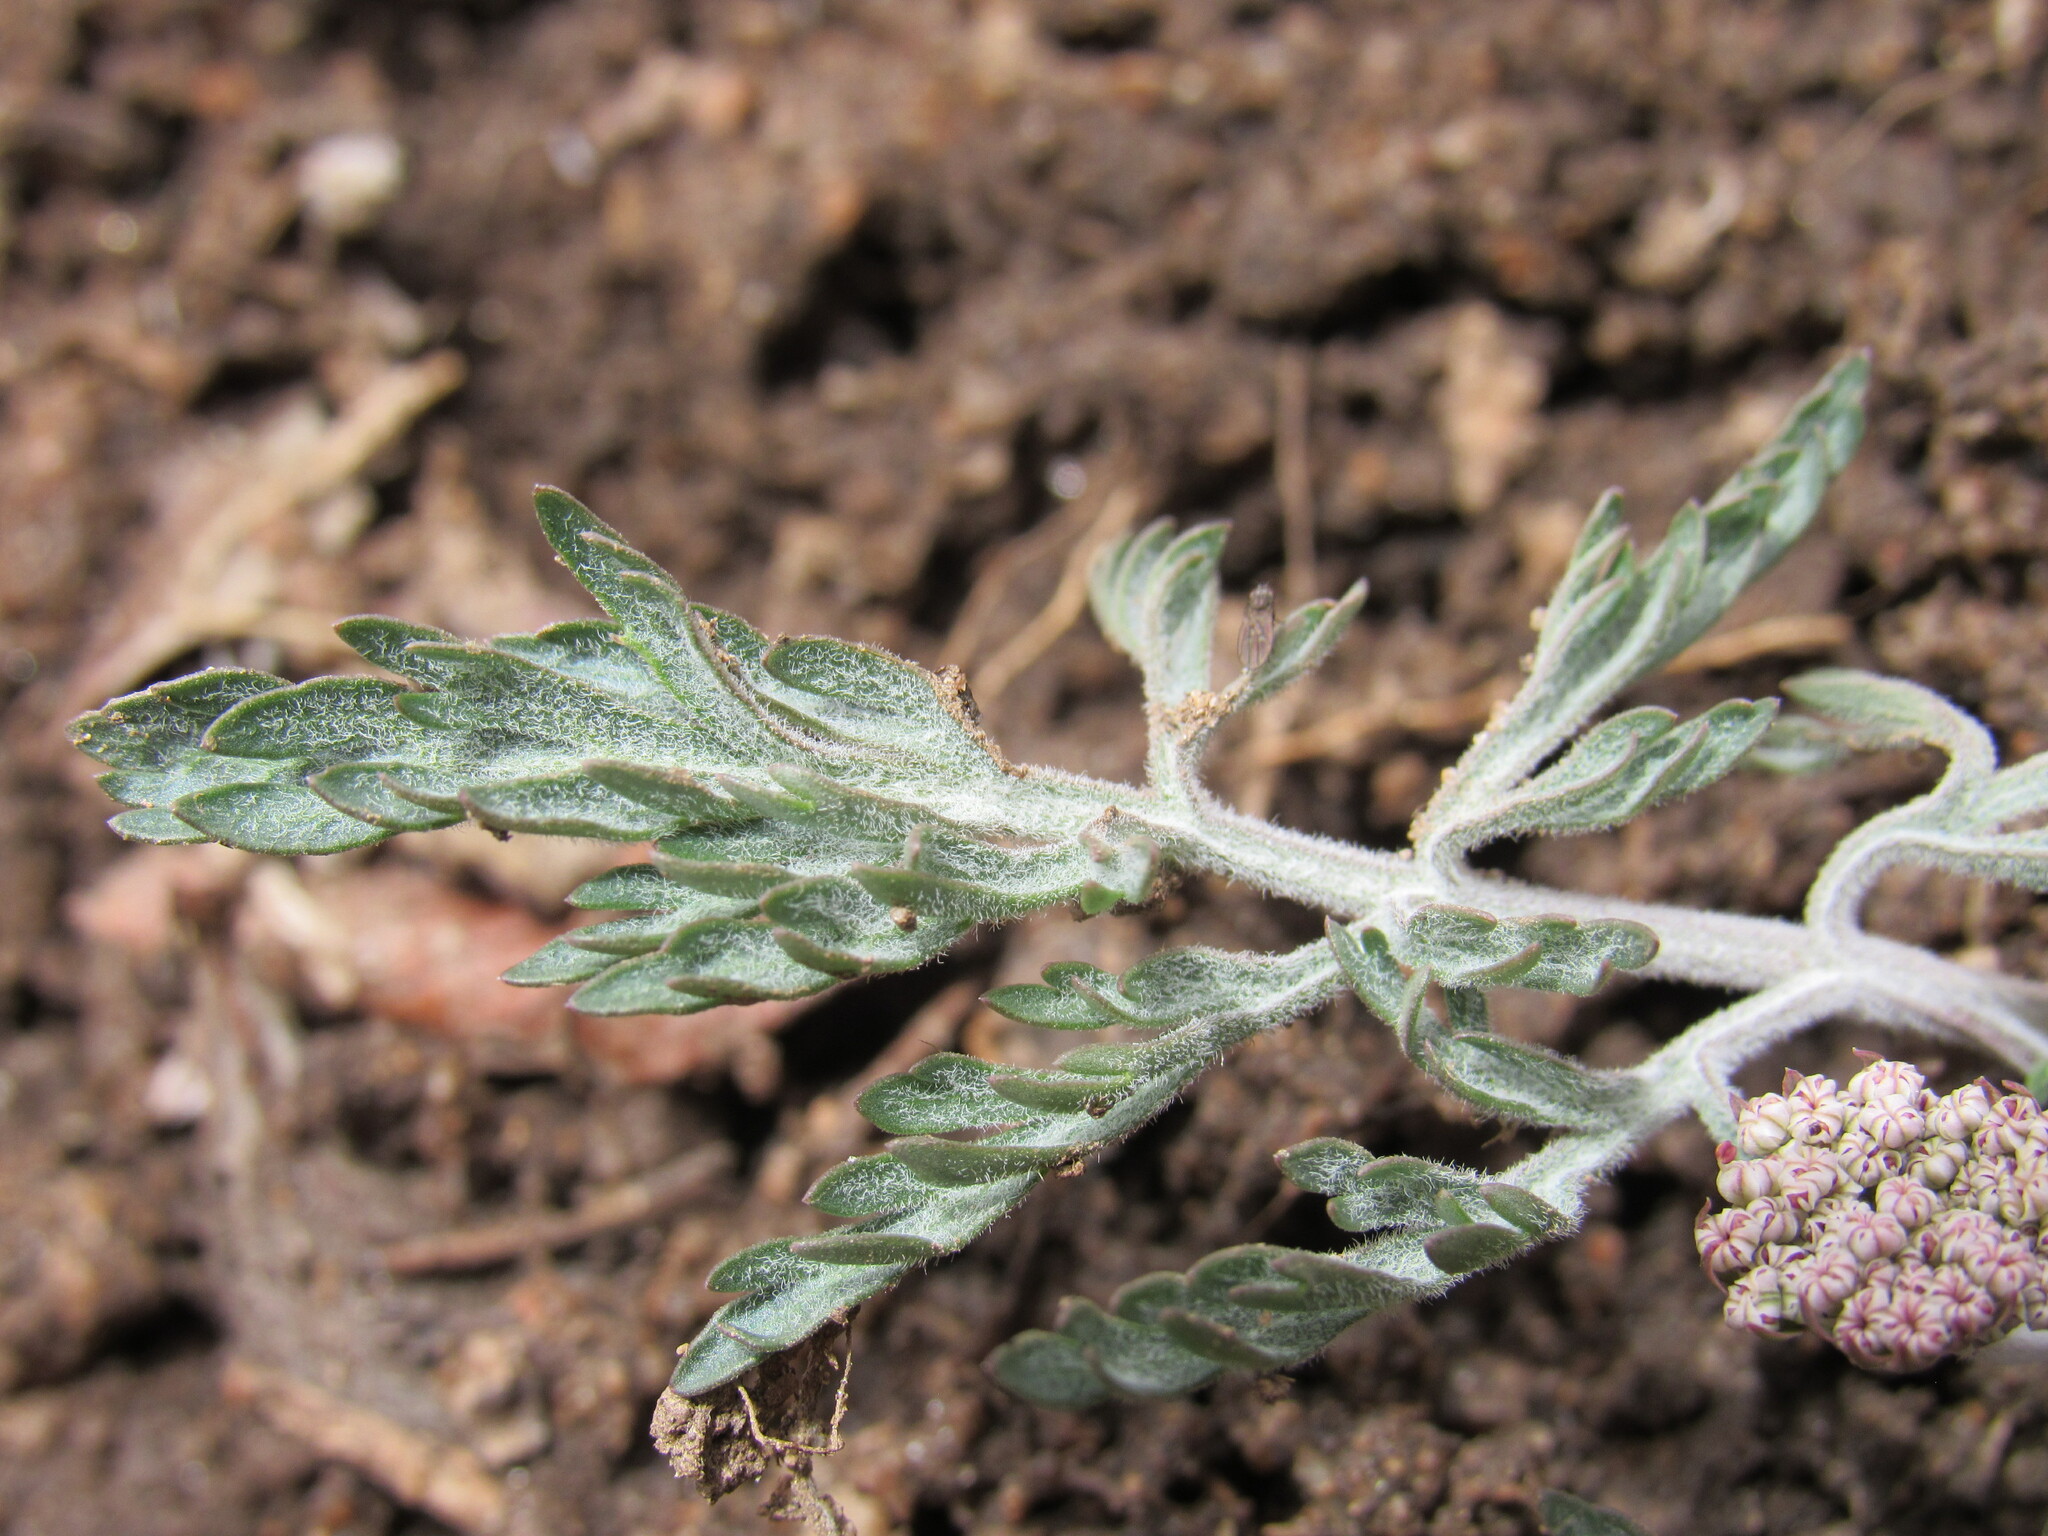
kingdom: Plantae
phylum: Tracheophyta
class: Magnoliopsida
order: Apiales
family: Apiaceae
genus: Lomatium
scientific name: Lomatium orientale
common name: Eastern cous
